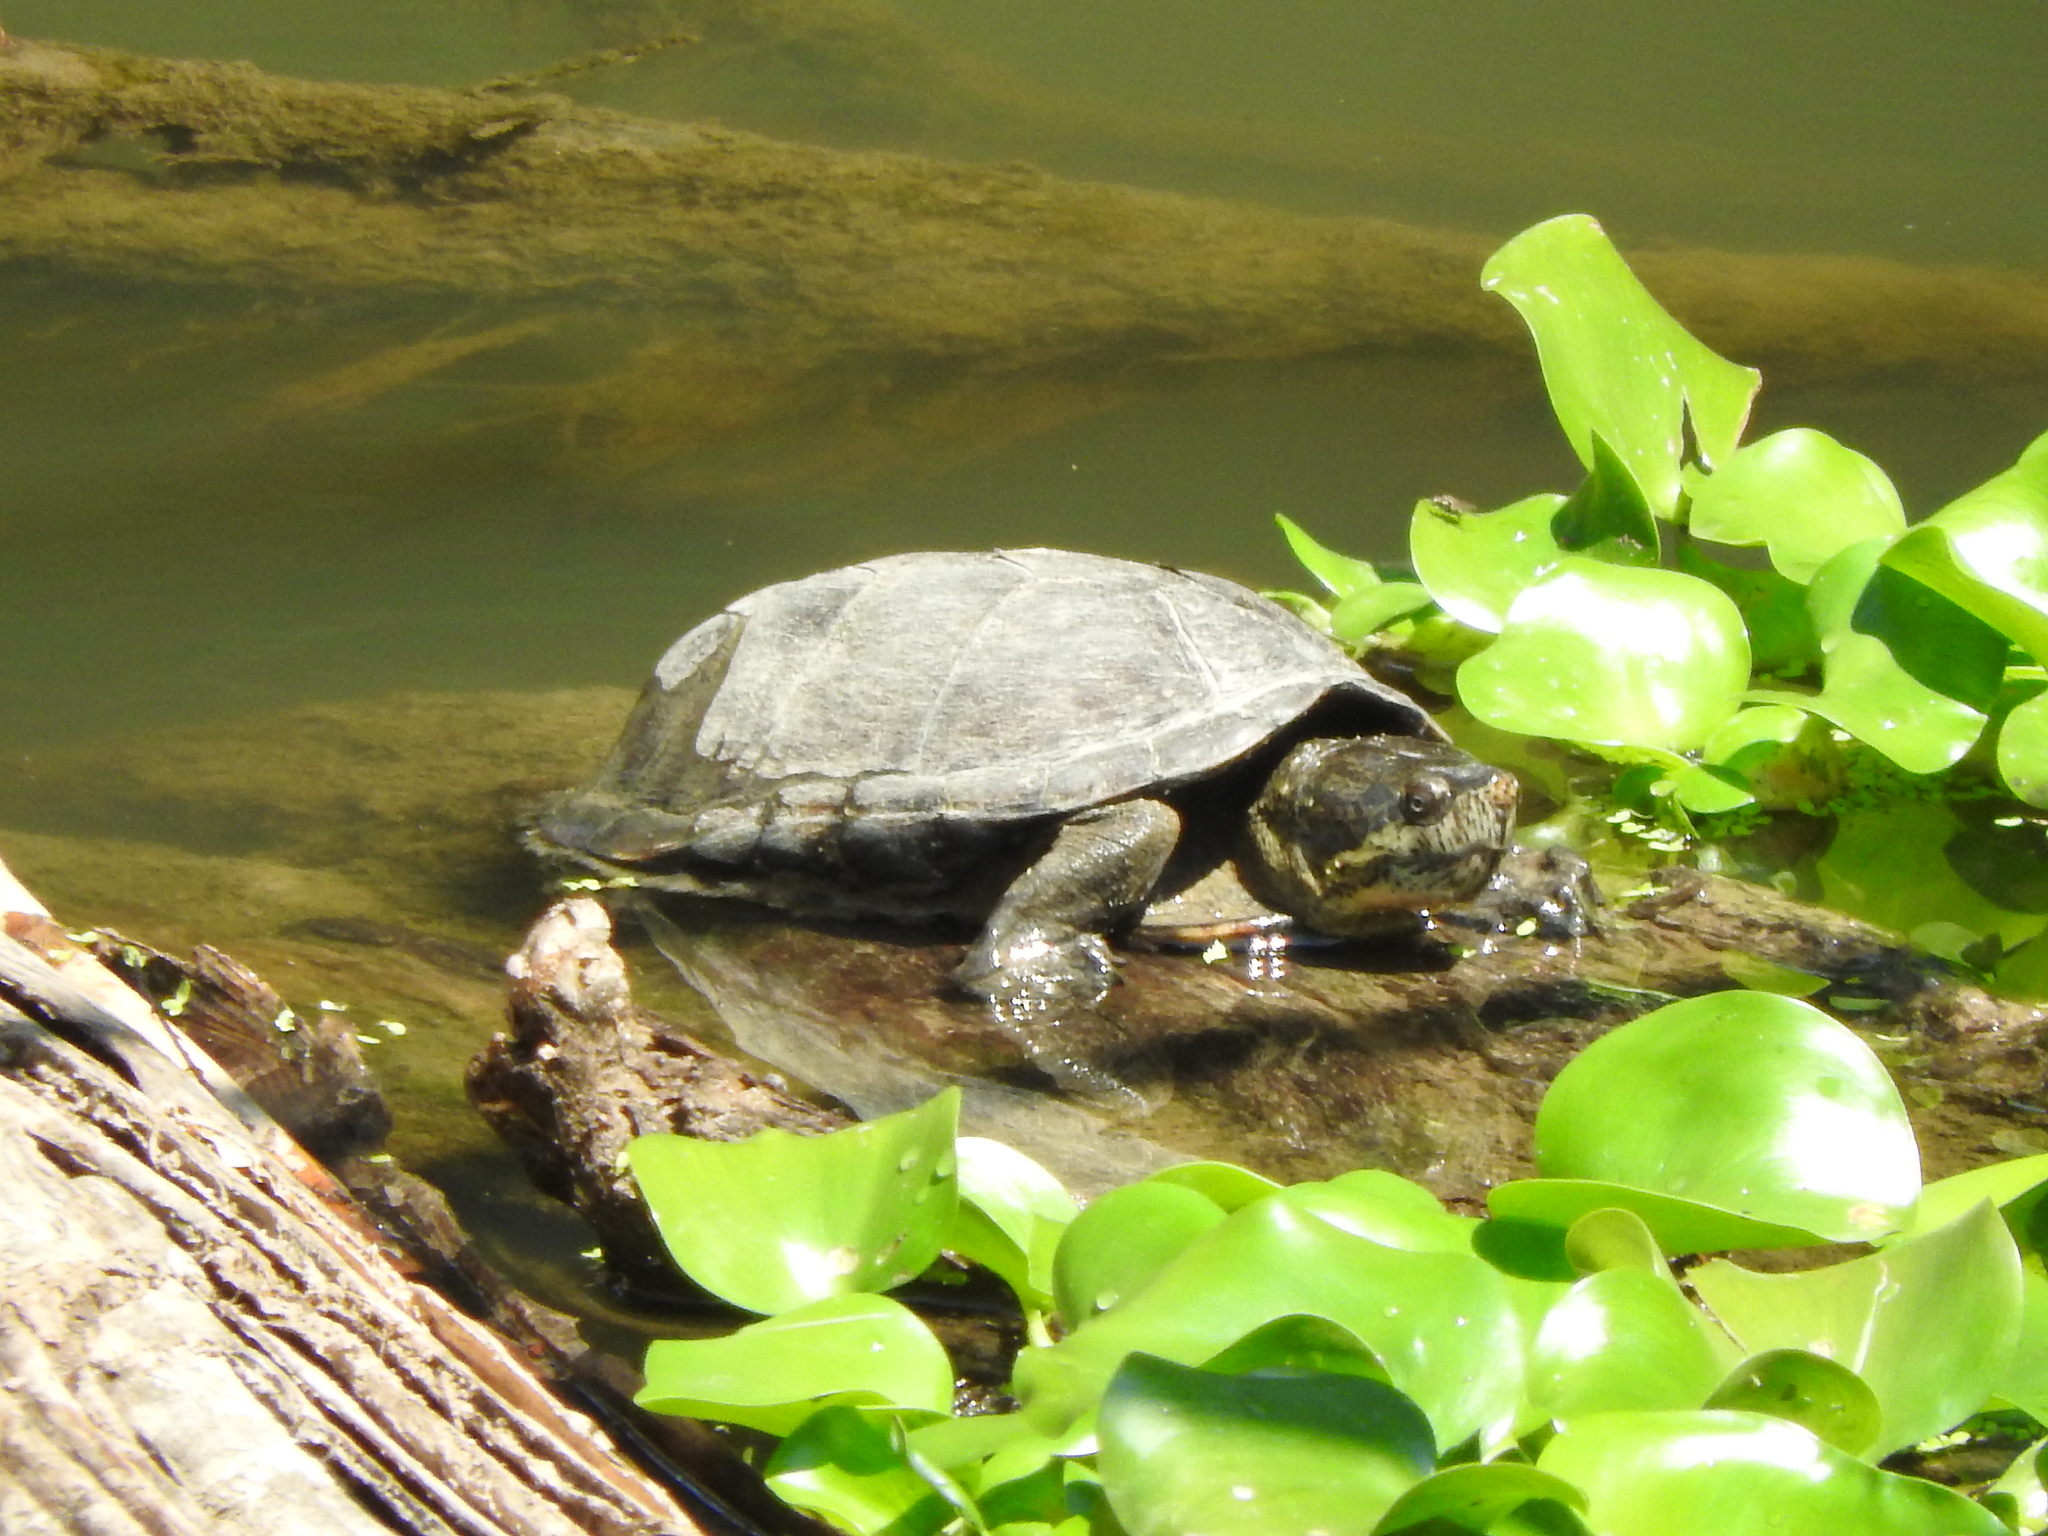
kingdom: Animalia
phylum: Chordata
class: Testudines
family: Kinosternidae
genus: Kinosternon
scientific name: Kinosternon integrum
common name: Mexican mud turtle
